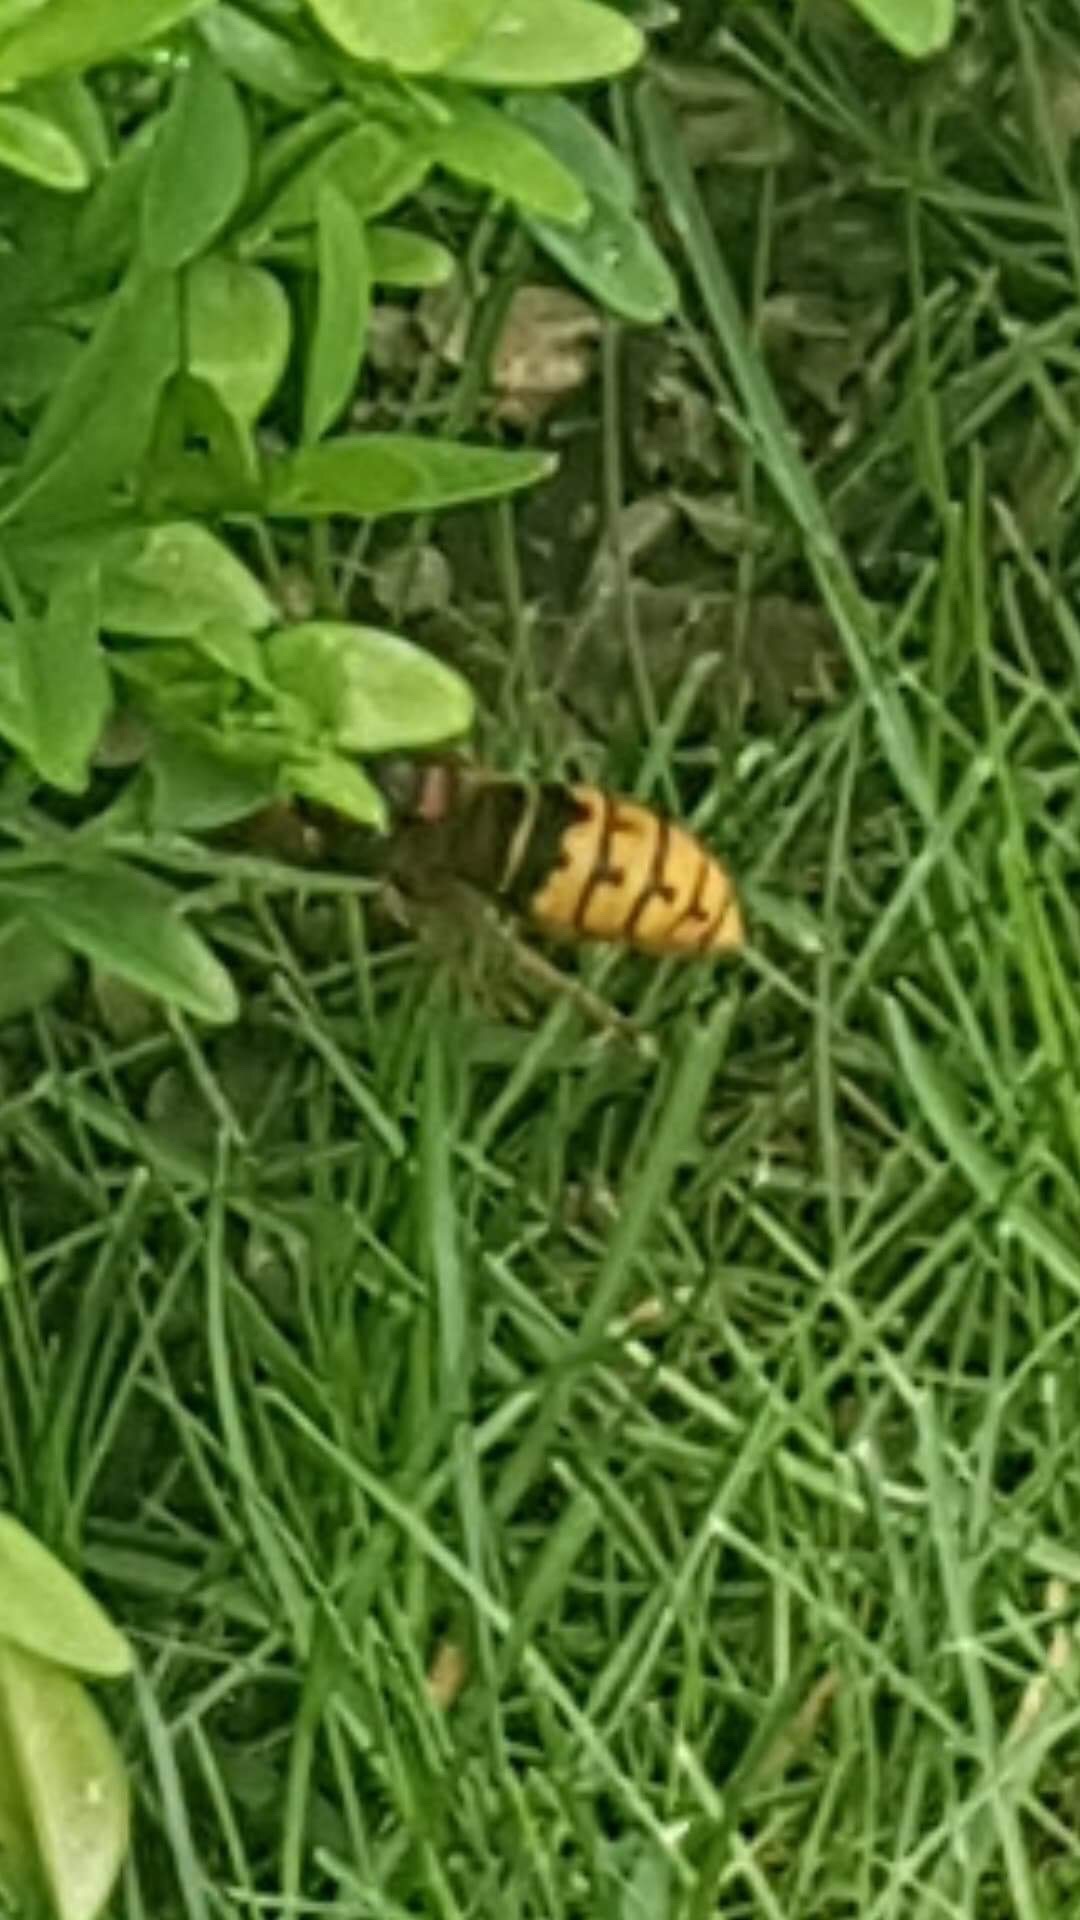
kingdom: Animalia
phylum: Arthropoda
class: Insecta
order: Hymenoptera
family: Vespidae
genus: Vespa
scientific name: Vespa crabro
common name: Hornet
